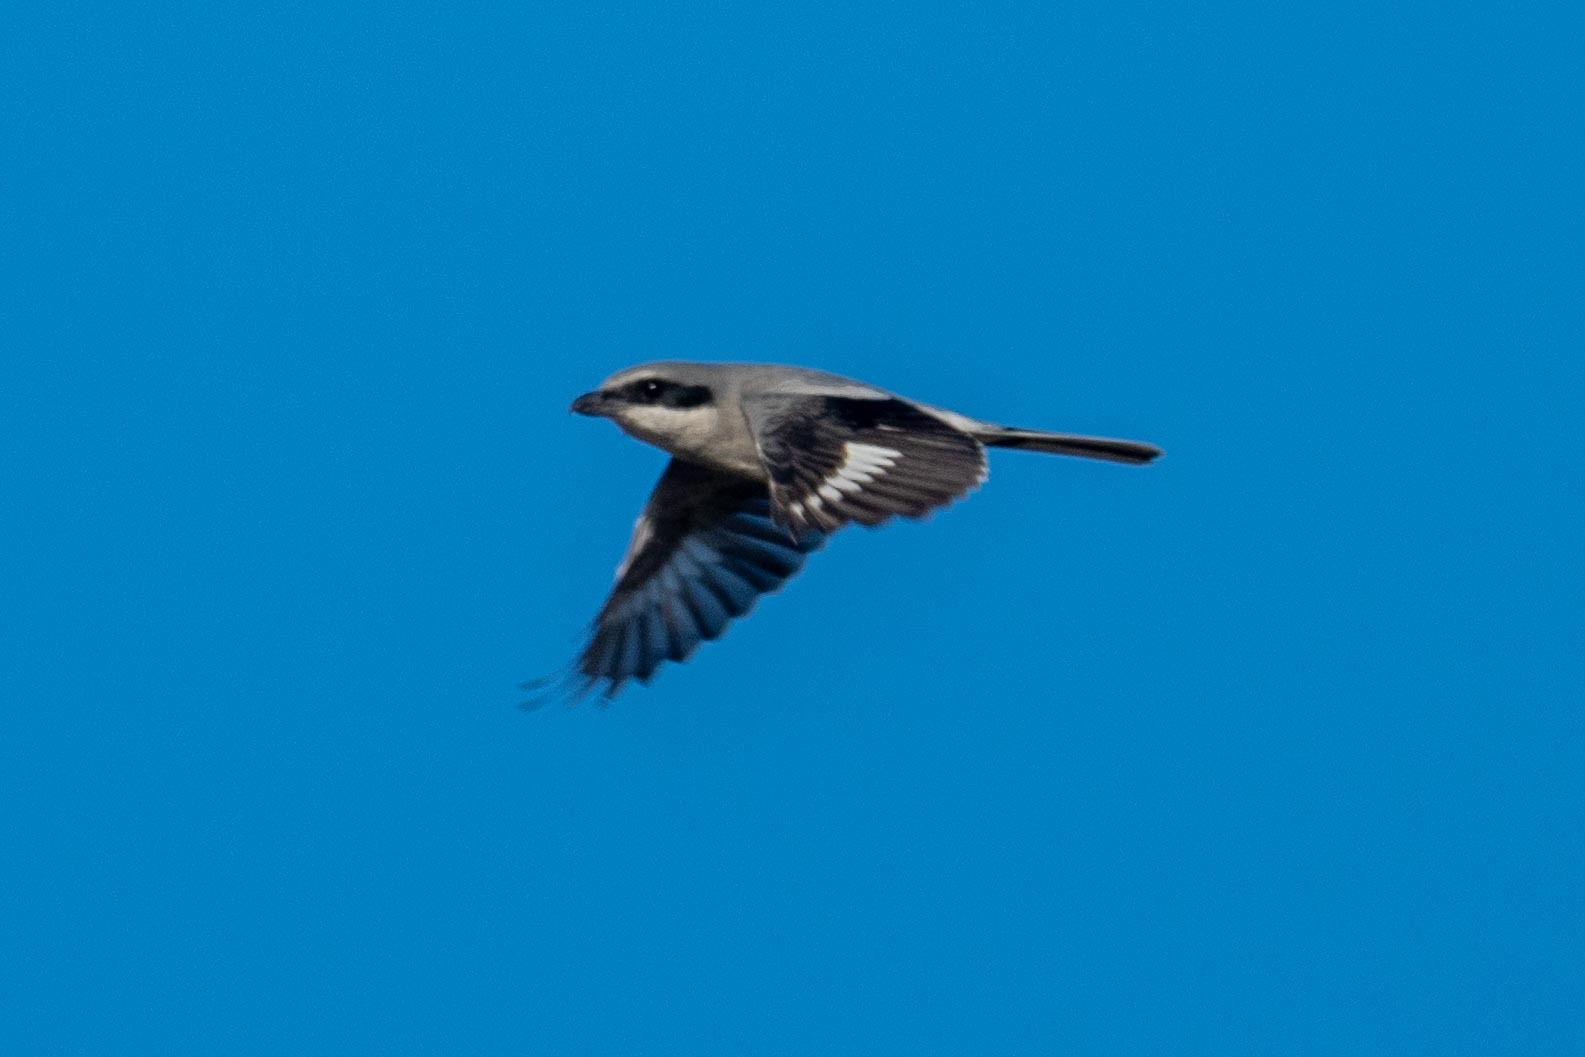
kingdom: Animalia
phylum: Chordata
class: Aves
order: Passeriformes
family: Laniidae
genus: Lanius
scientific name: Lanius ludovicianus
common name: Loggerhead shrike
